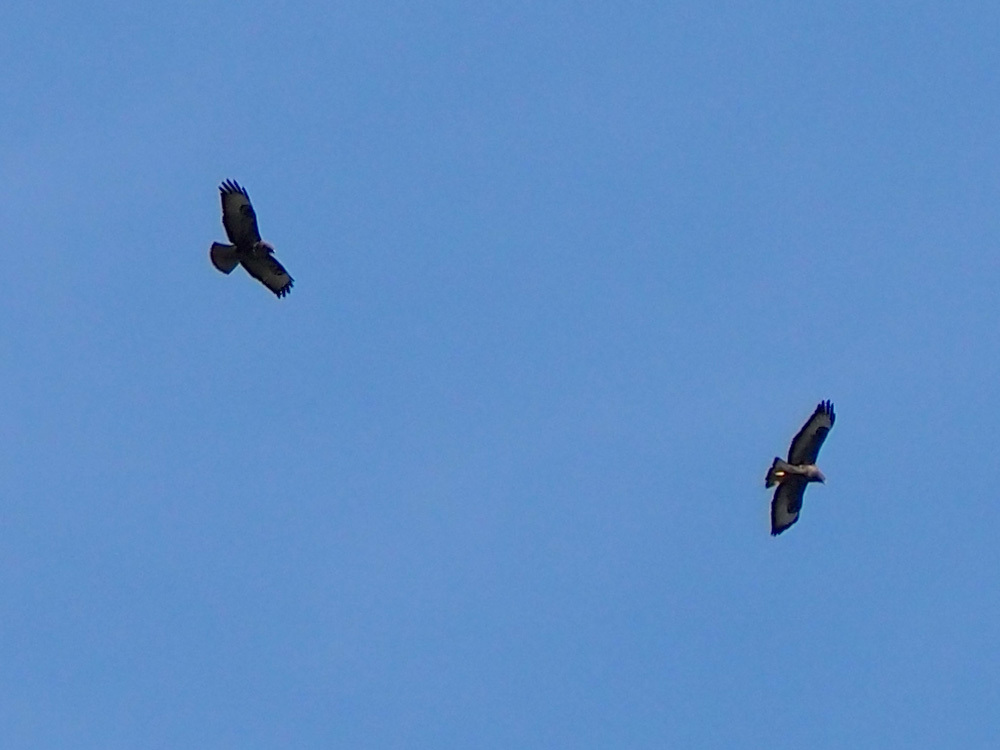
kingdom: Animalia
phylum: Chordata
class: Aves
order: Accipitriformes
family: Accipitridae
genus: Buteo
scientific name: Buteo buteo
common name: Common buzzard
